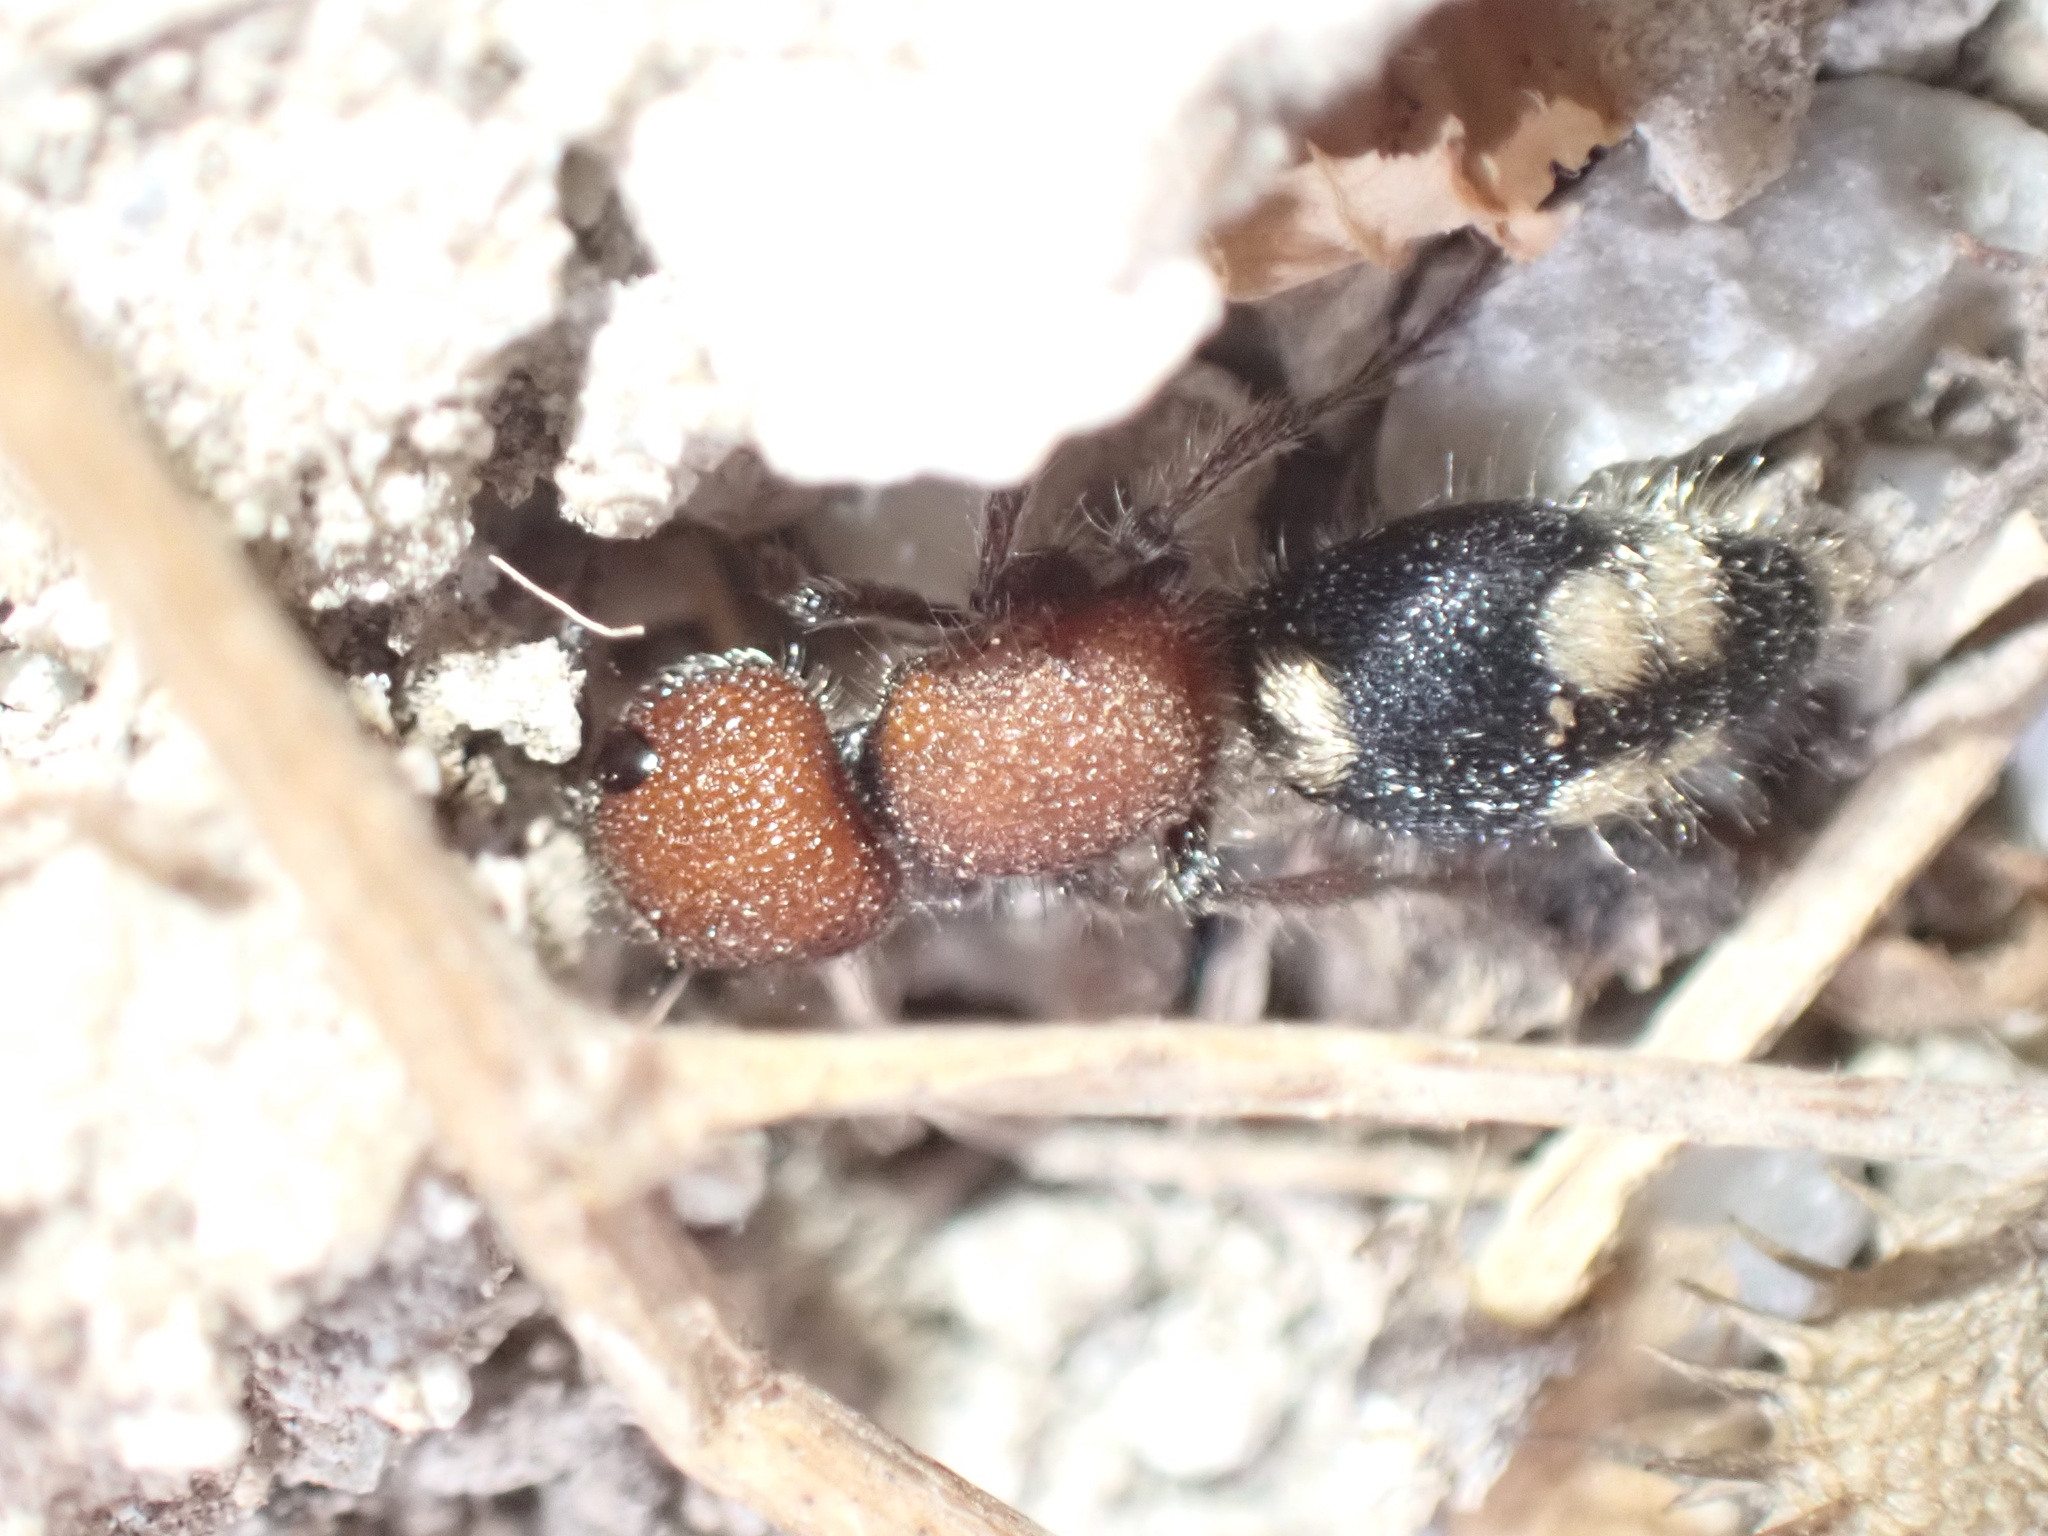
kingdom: Animalia
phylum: Arthropoda
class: Insecta
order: Hymenoptera
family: Mutillidae
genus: Mutilla
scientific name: Mutilla quinquemaculata
